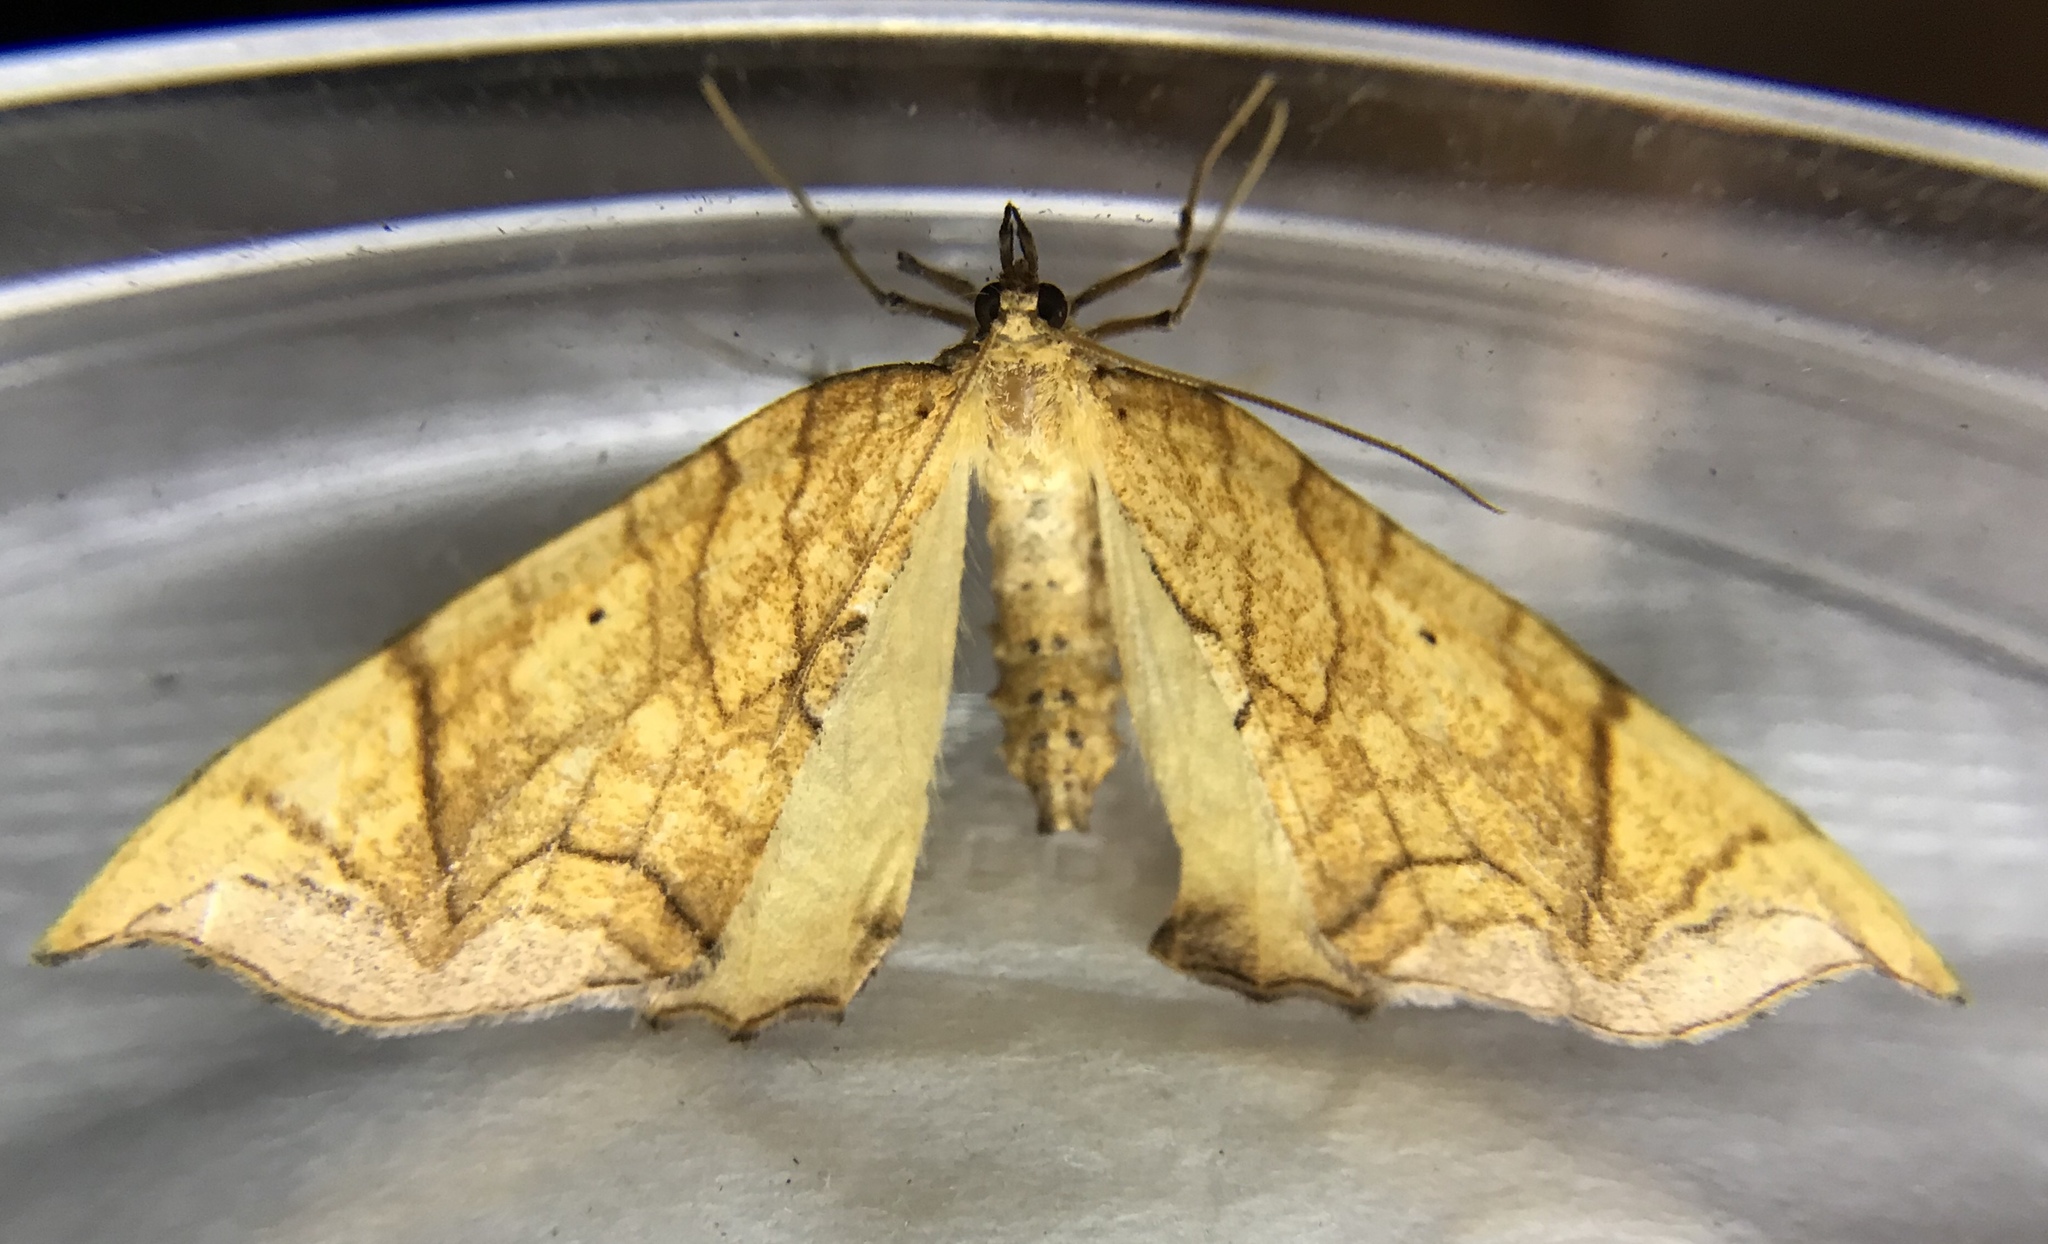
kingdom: Animalia
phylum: Arthropoda
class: Insecta
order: Lepidoptera
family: Geometridae
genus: Eulithis
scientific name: Eulithis gracilineata
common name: Greater grapevine looper moth
